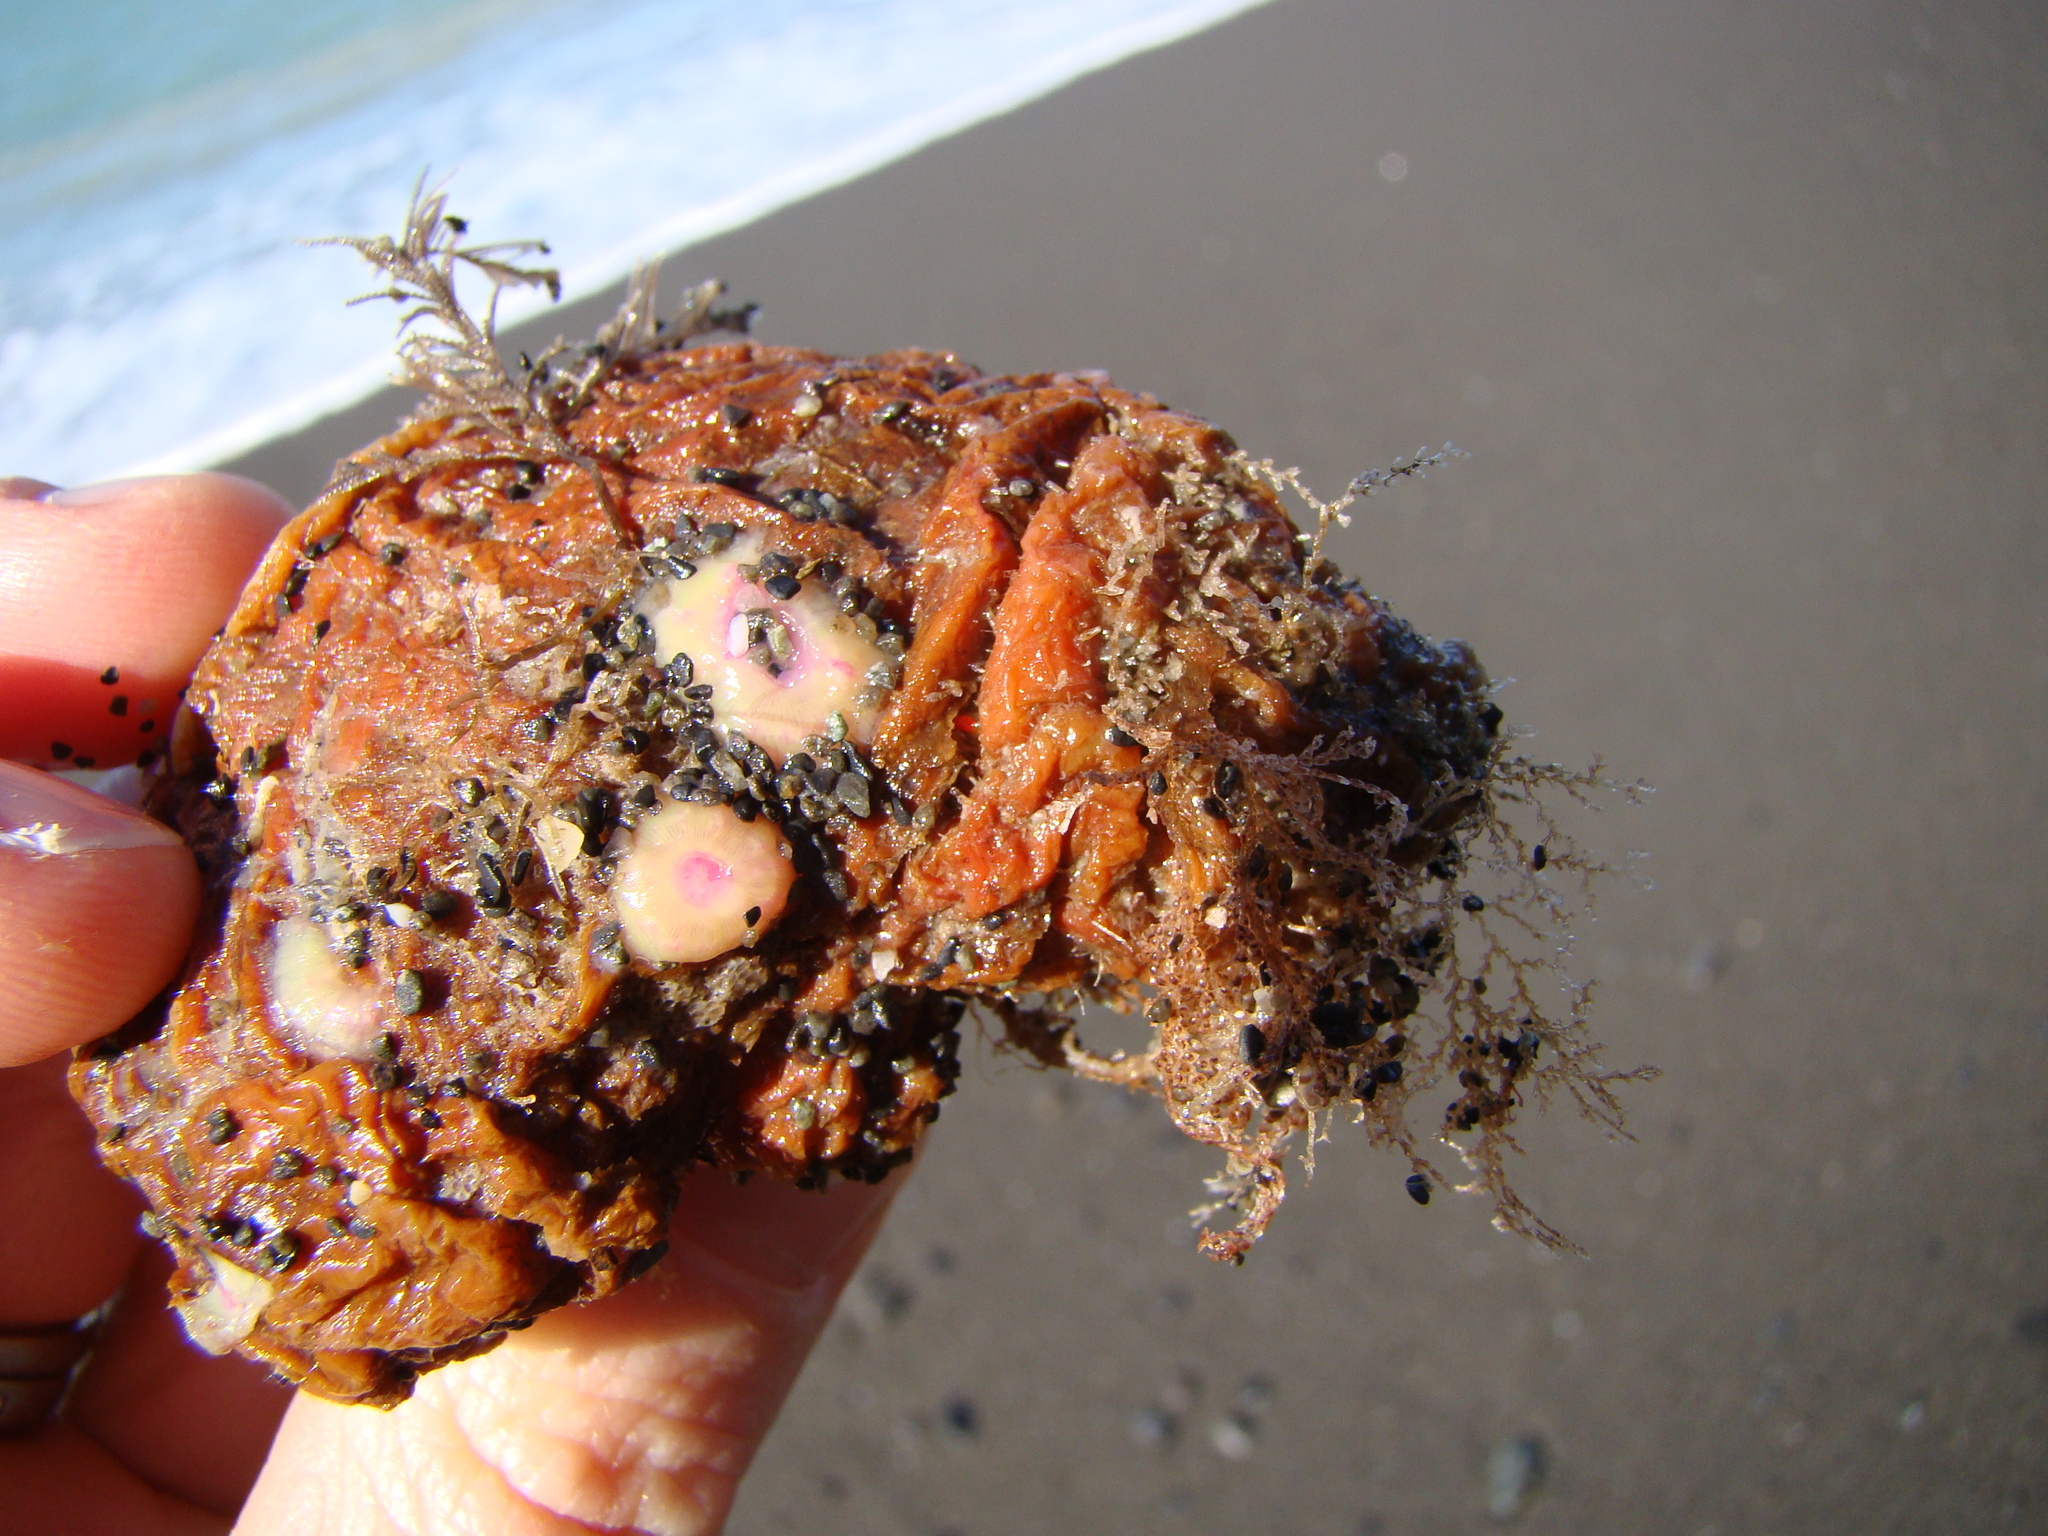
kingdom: Animalia
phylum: Cnidaria
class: Anthozoa
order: Corallimorpharia
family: Corallimorphidae
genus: Corynactis
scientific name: Corynactis australis
